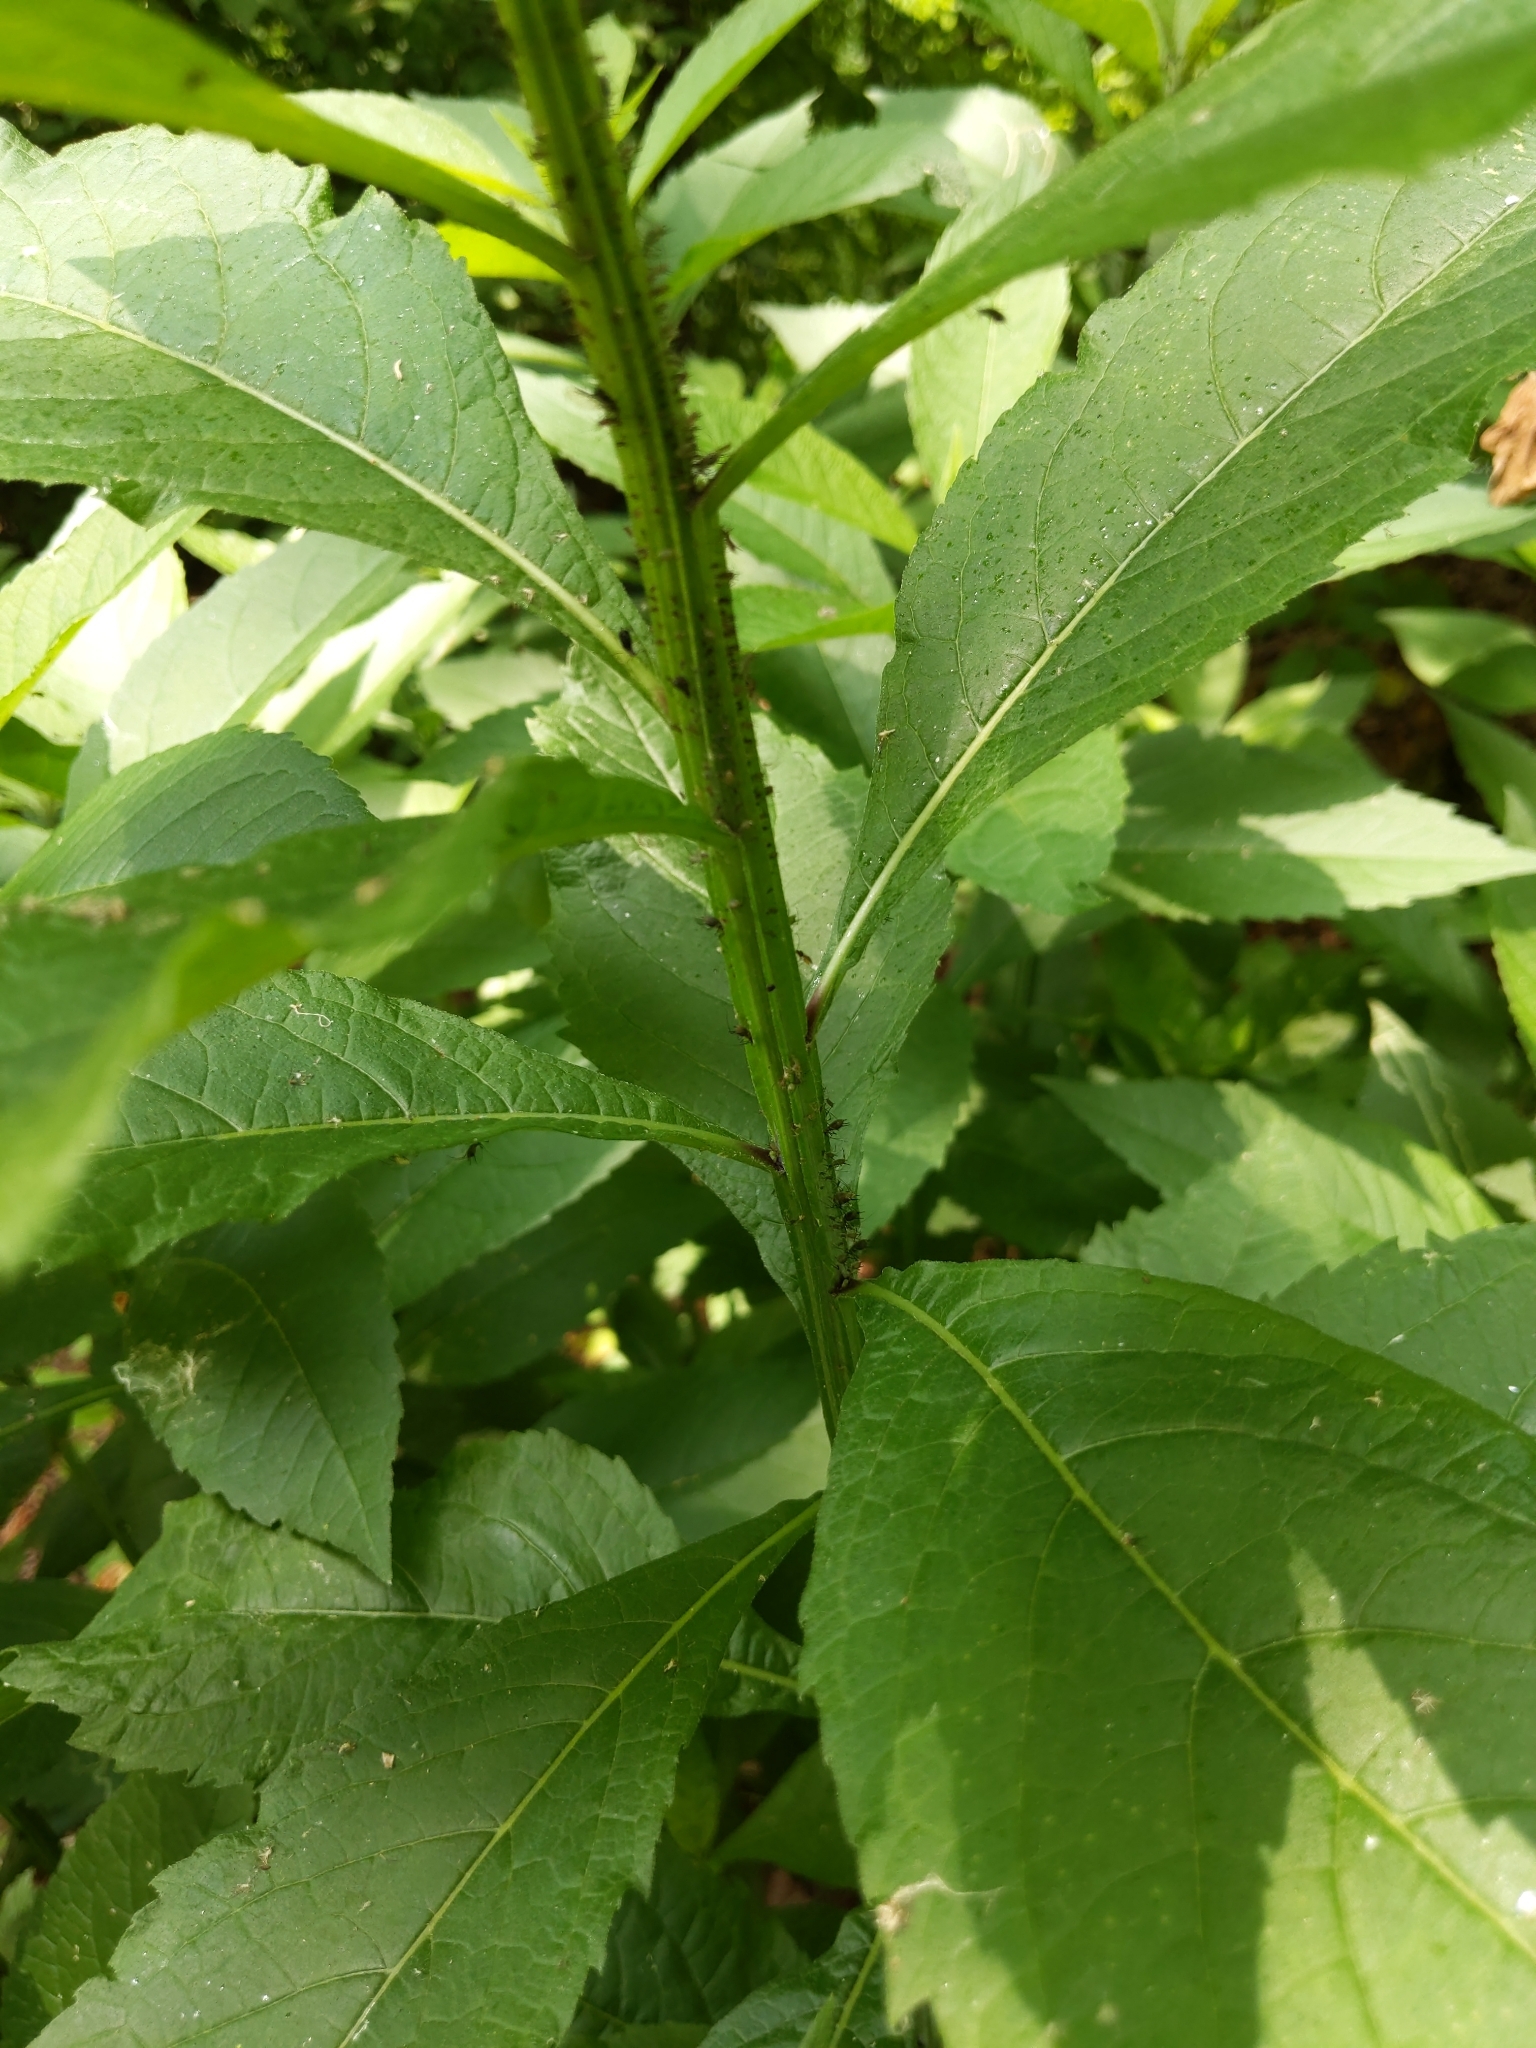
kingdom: Plantae
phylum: Tracheophyta
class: Magnoliopsida
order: Asterales
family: Asteraceae
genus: Verbesina
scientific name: Verbesina alternifolia
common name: Wingstem
